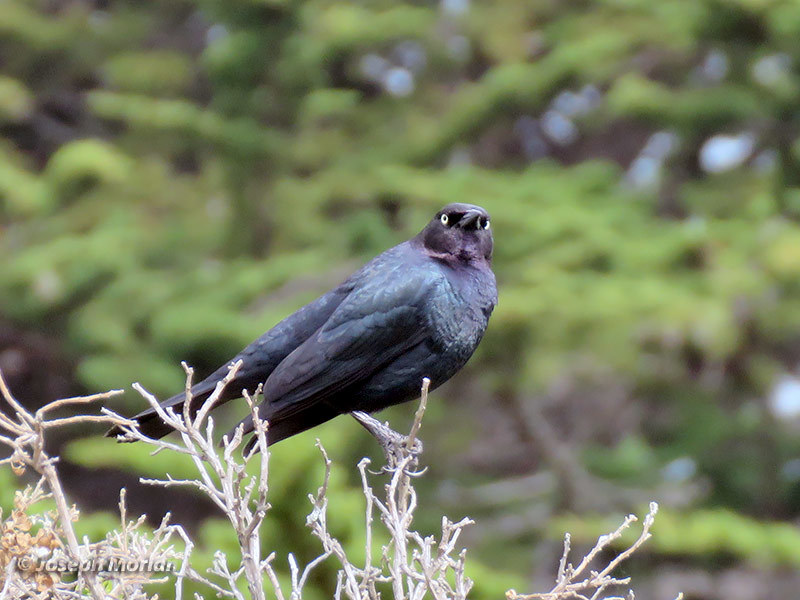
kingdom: Animalia
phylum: Chordata
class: Aves
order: Passeriformes
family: Icteridae
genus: Euphagus
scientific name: Euphagus cyanocephalus
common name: Brewer's blackbird
